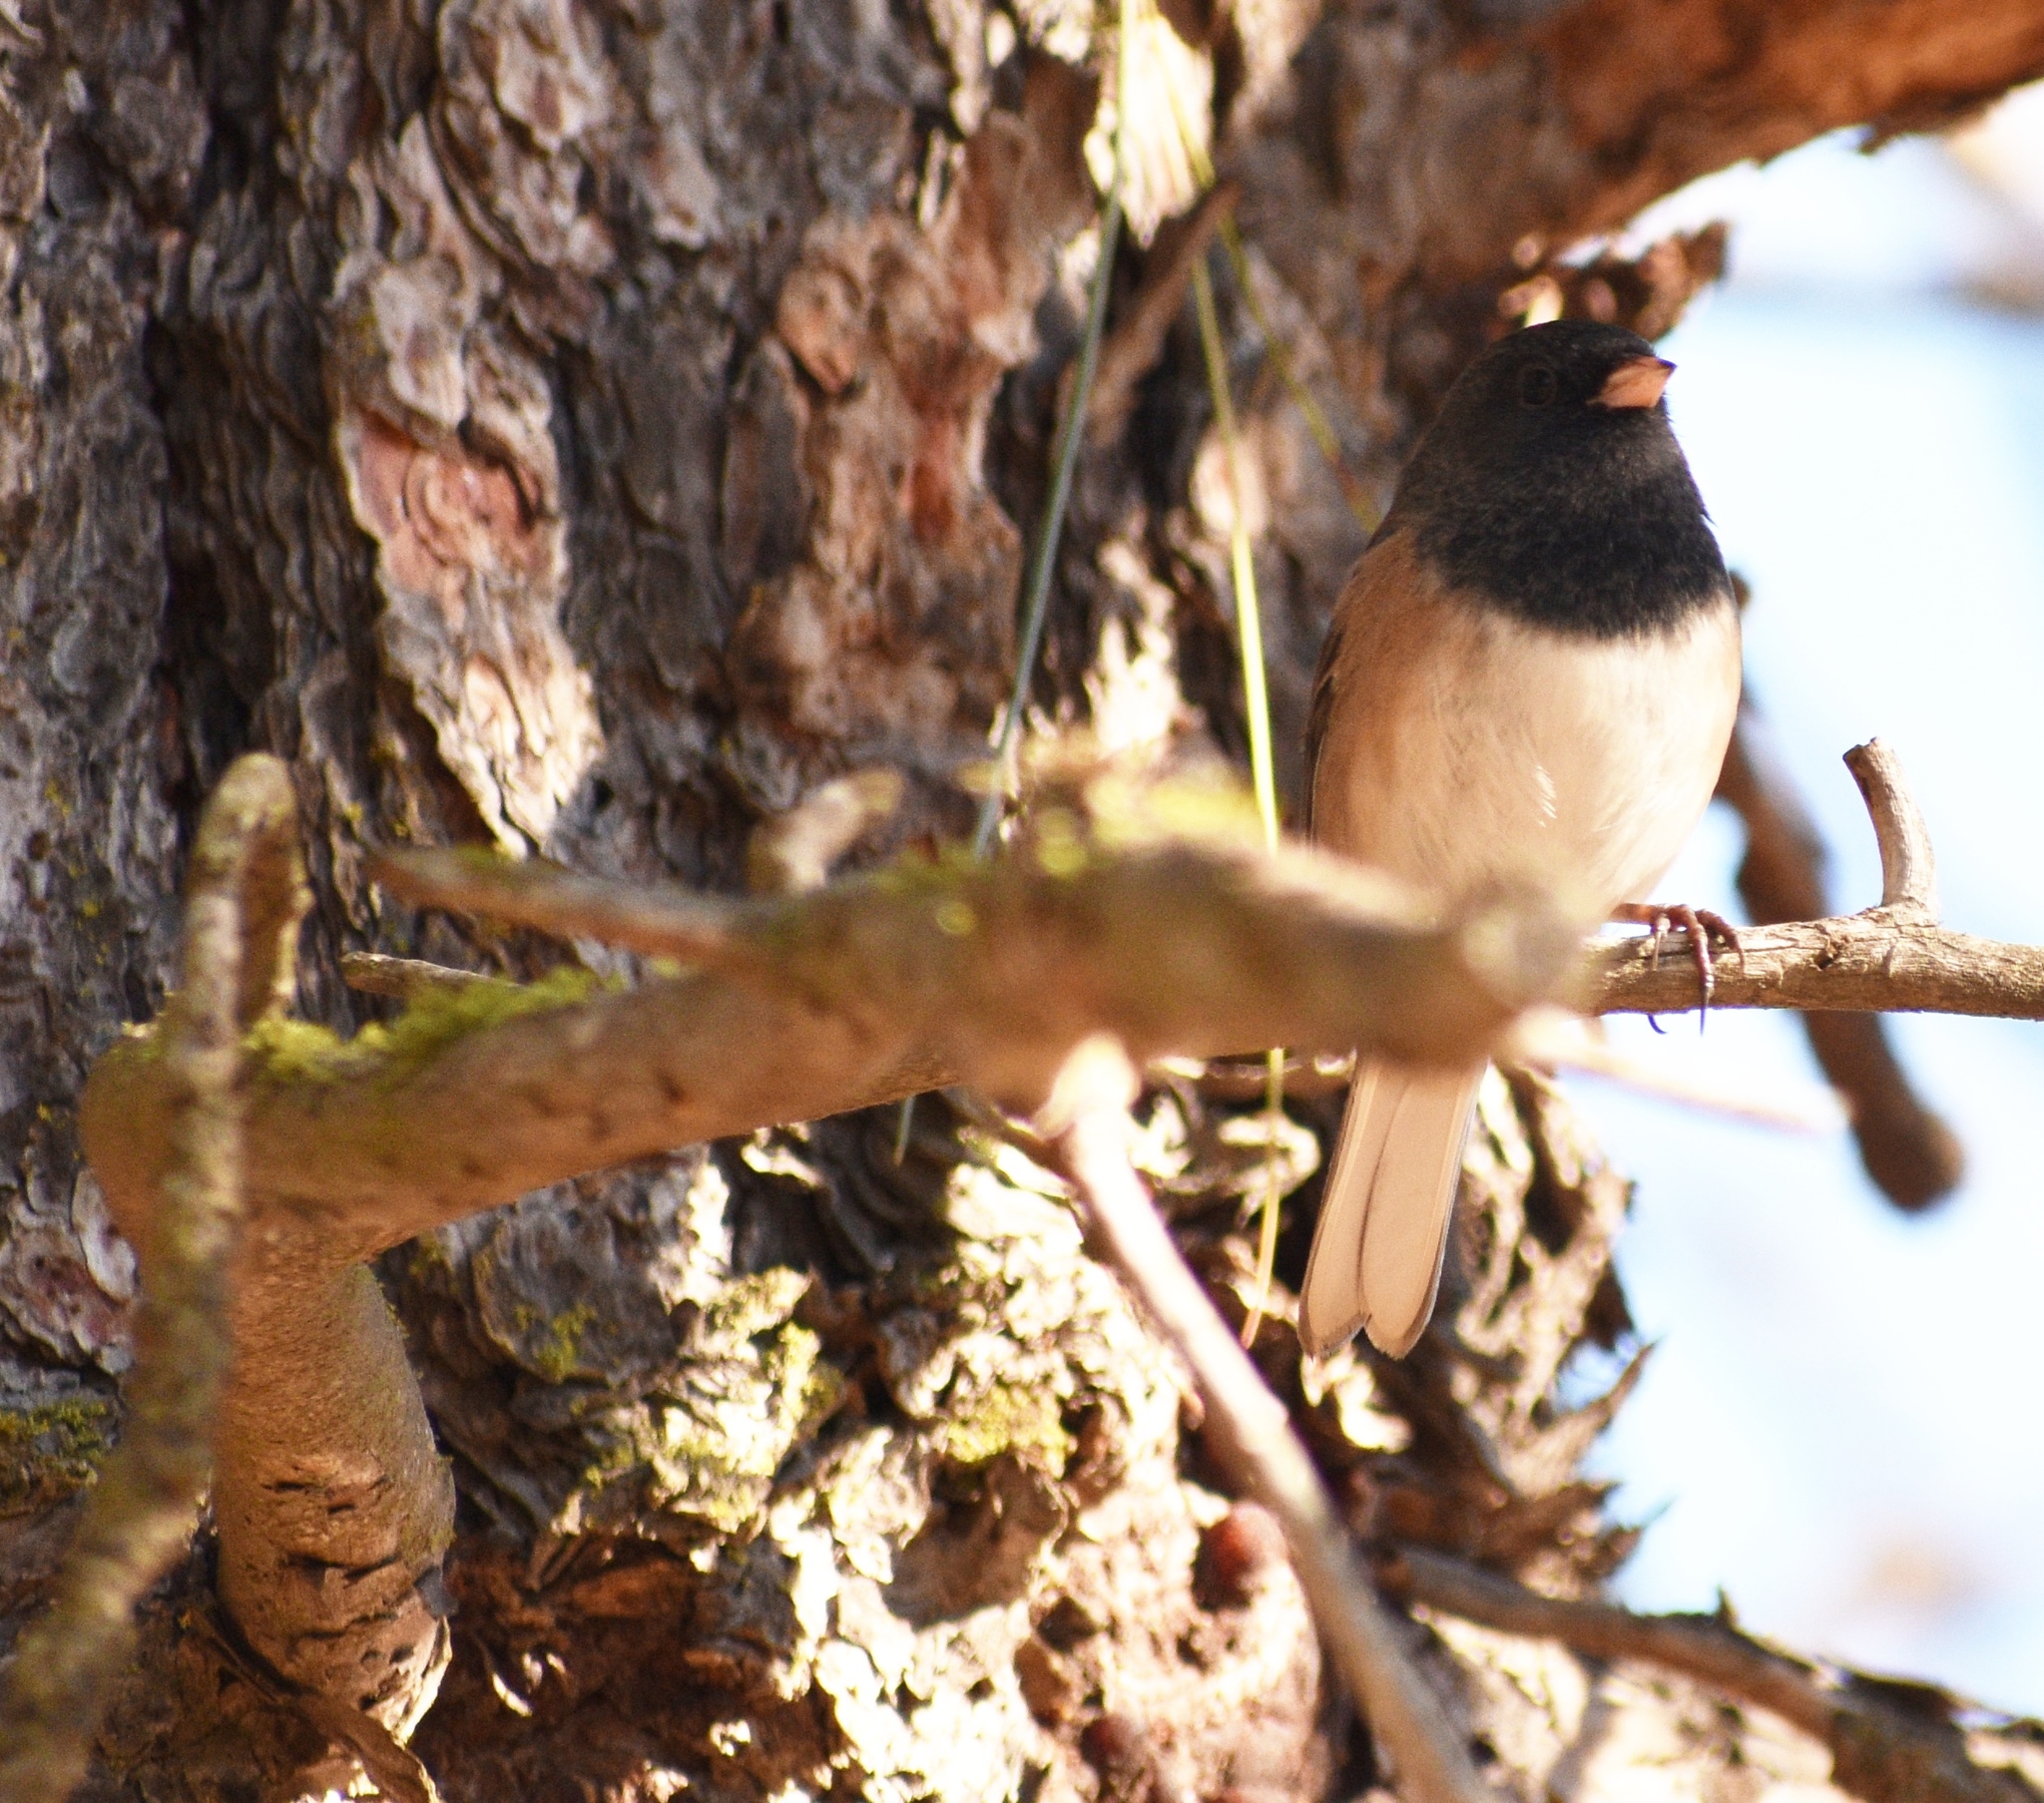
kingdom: Animalia
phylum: Chordata
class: Aves
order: Passeriformes
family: Passerellidae
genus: Junco
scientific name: Junco hyemalis
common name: Dark-eyed junco
